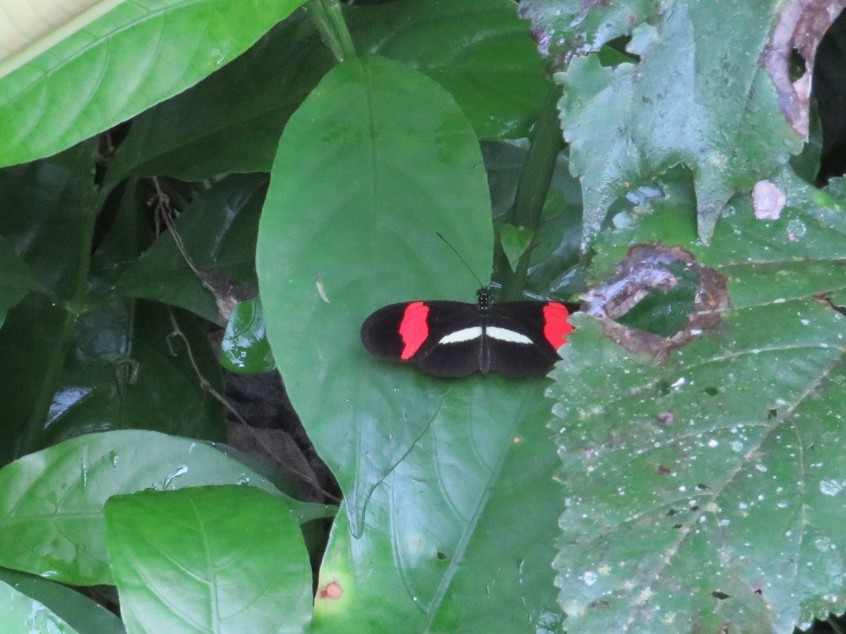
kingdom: Animalia
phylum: Arthropoda
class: Insecta
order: Lepidoptera
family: Nymphalidae
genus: Tirumala
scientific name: Tirumala petiverana
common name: Blue monarch
